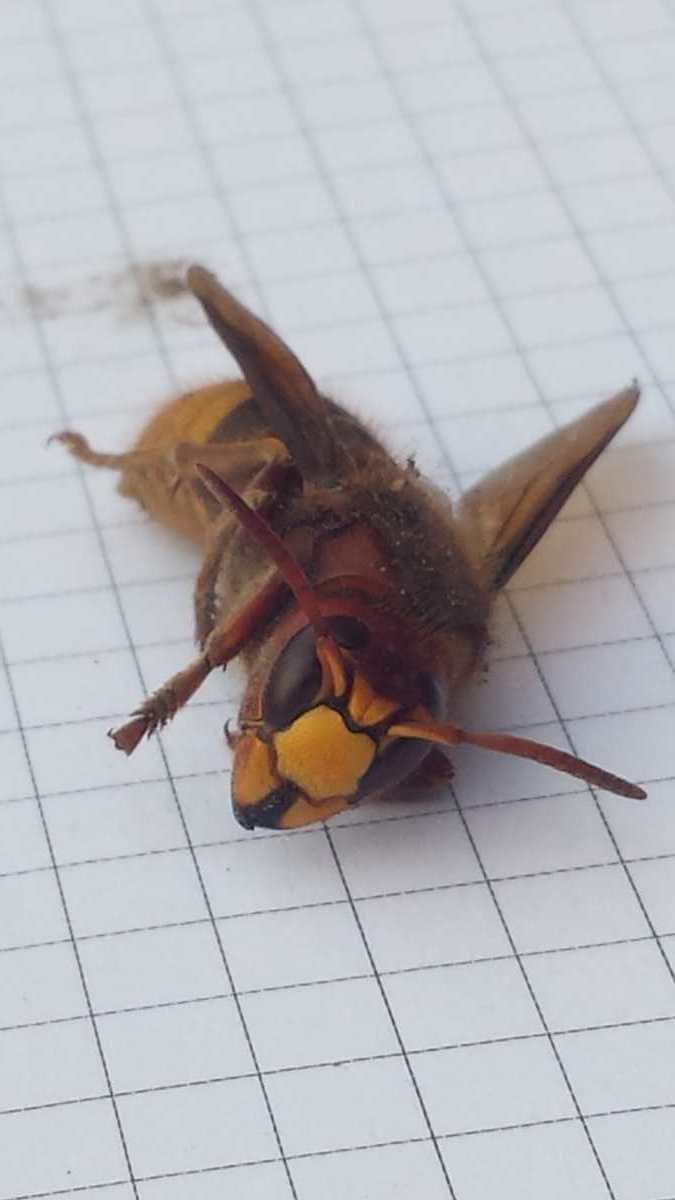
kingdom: Animalia
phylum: Arthropoda
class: Insecta
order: Hymenoptera
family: Vespidae
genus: Vespa
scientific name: Vespa crabro
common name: Hornet
